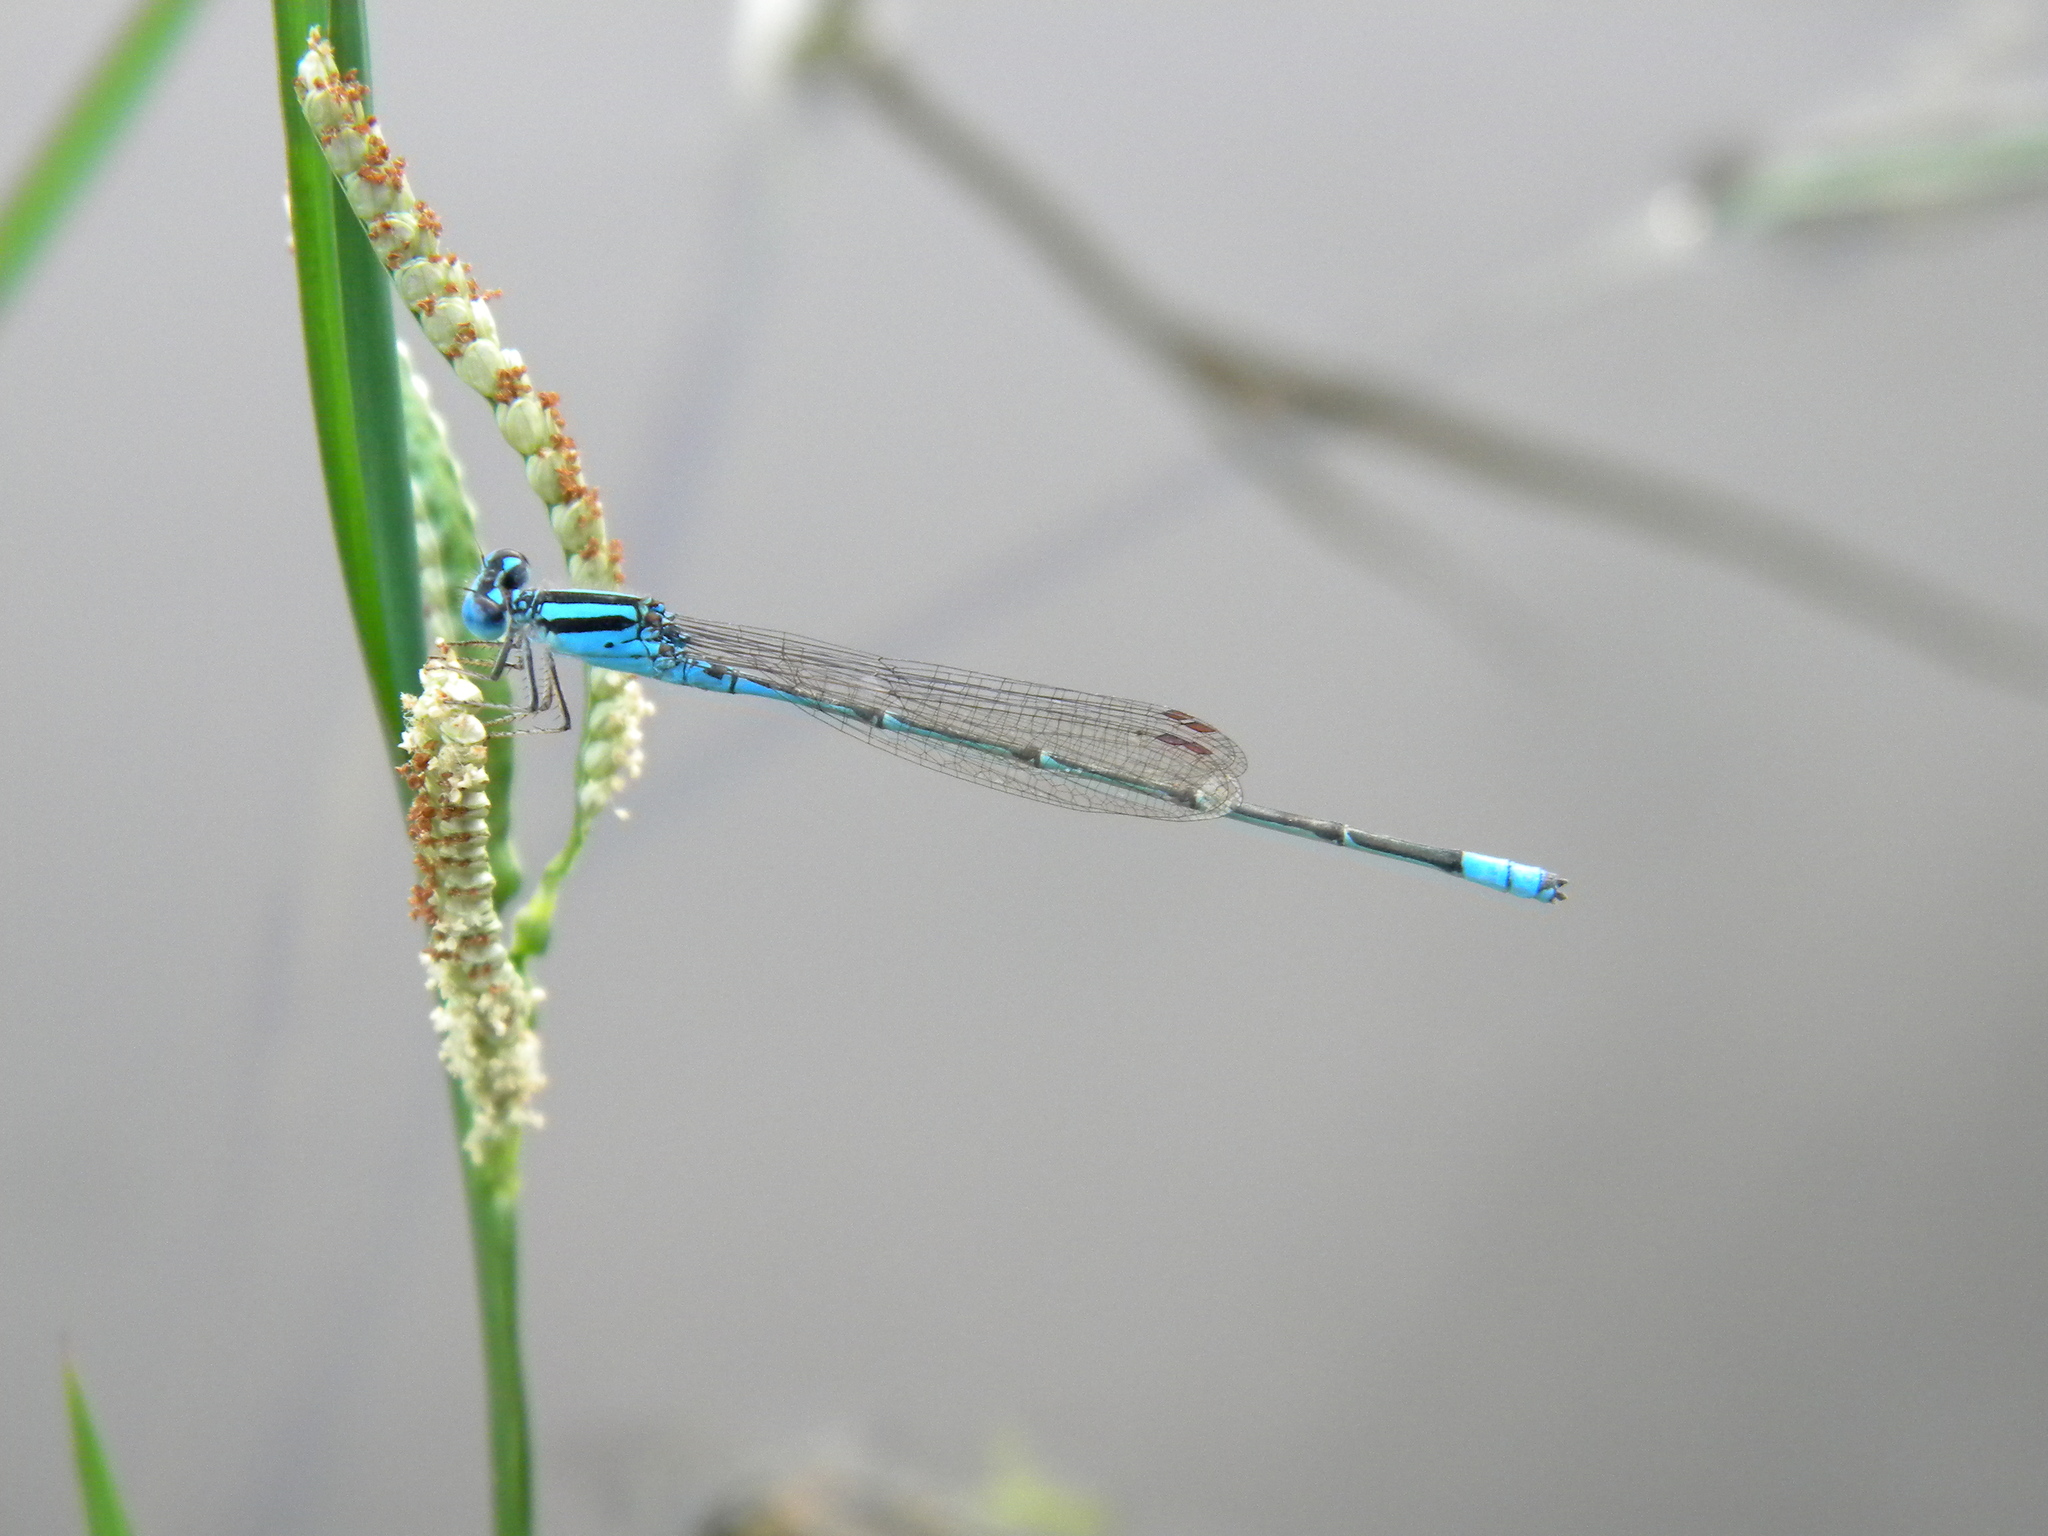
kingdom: Animalia
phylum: Arthropoda
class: Insecta
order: Odonata
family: Coenagrionidae
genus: Aciagrion
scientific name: Aciagrion occidentale
